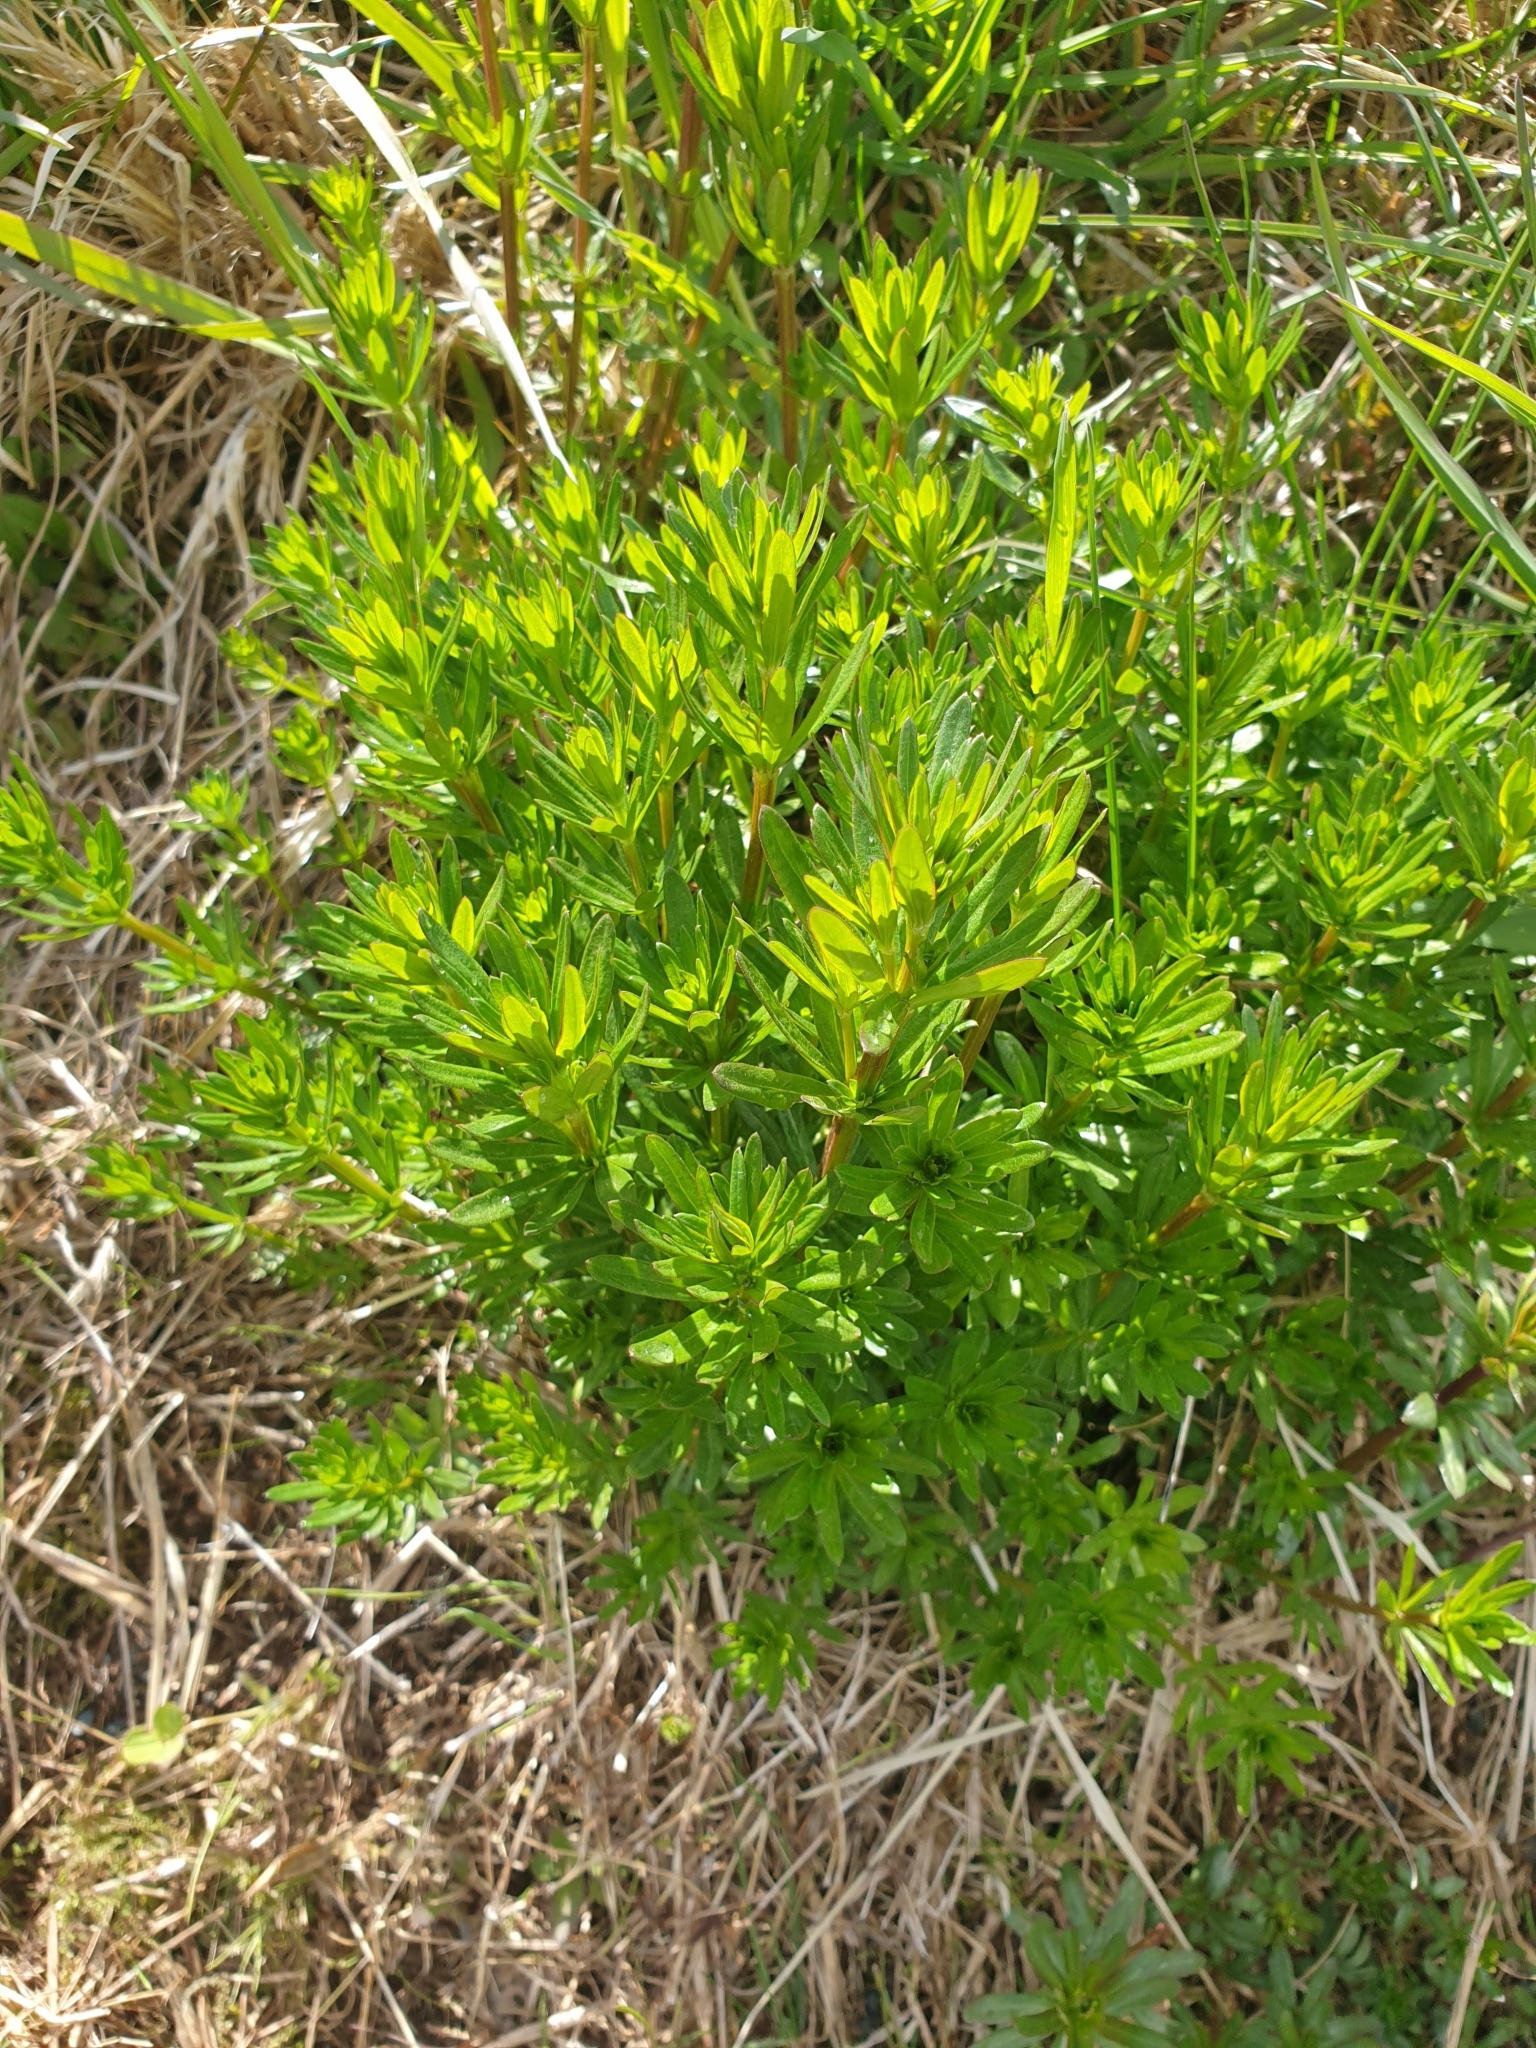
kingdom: Plantae
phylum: Tracheophyta
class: Magnoliopsida
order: Gentianales
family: Rubiaceae
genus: Galium
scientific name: Galium mollugo
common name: Hedge bedstraw
